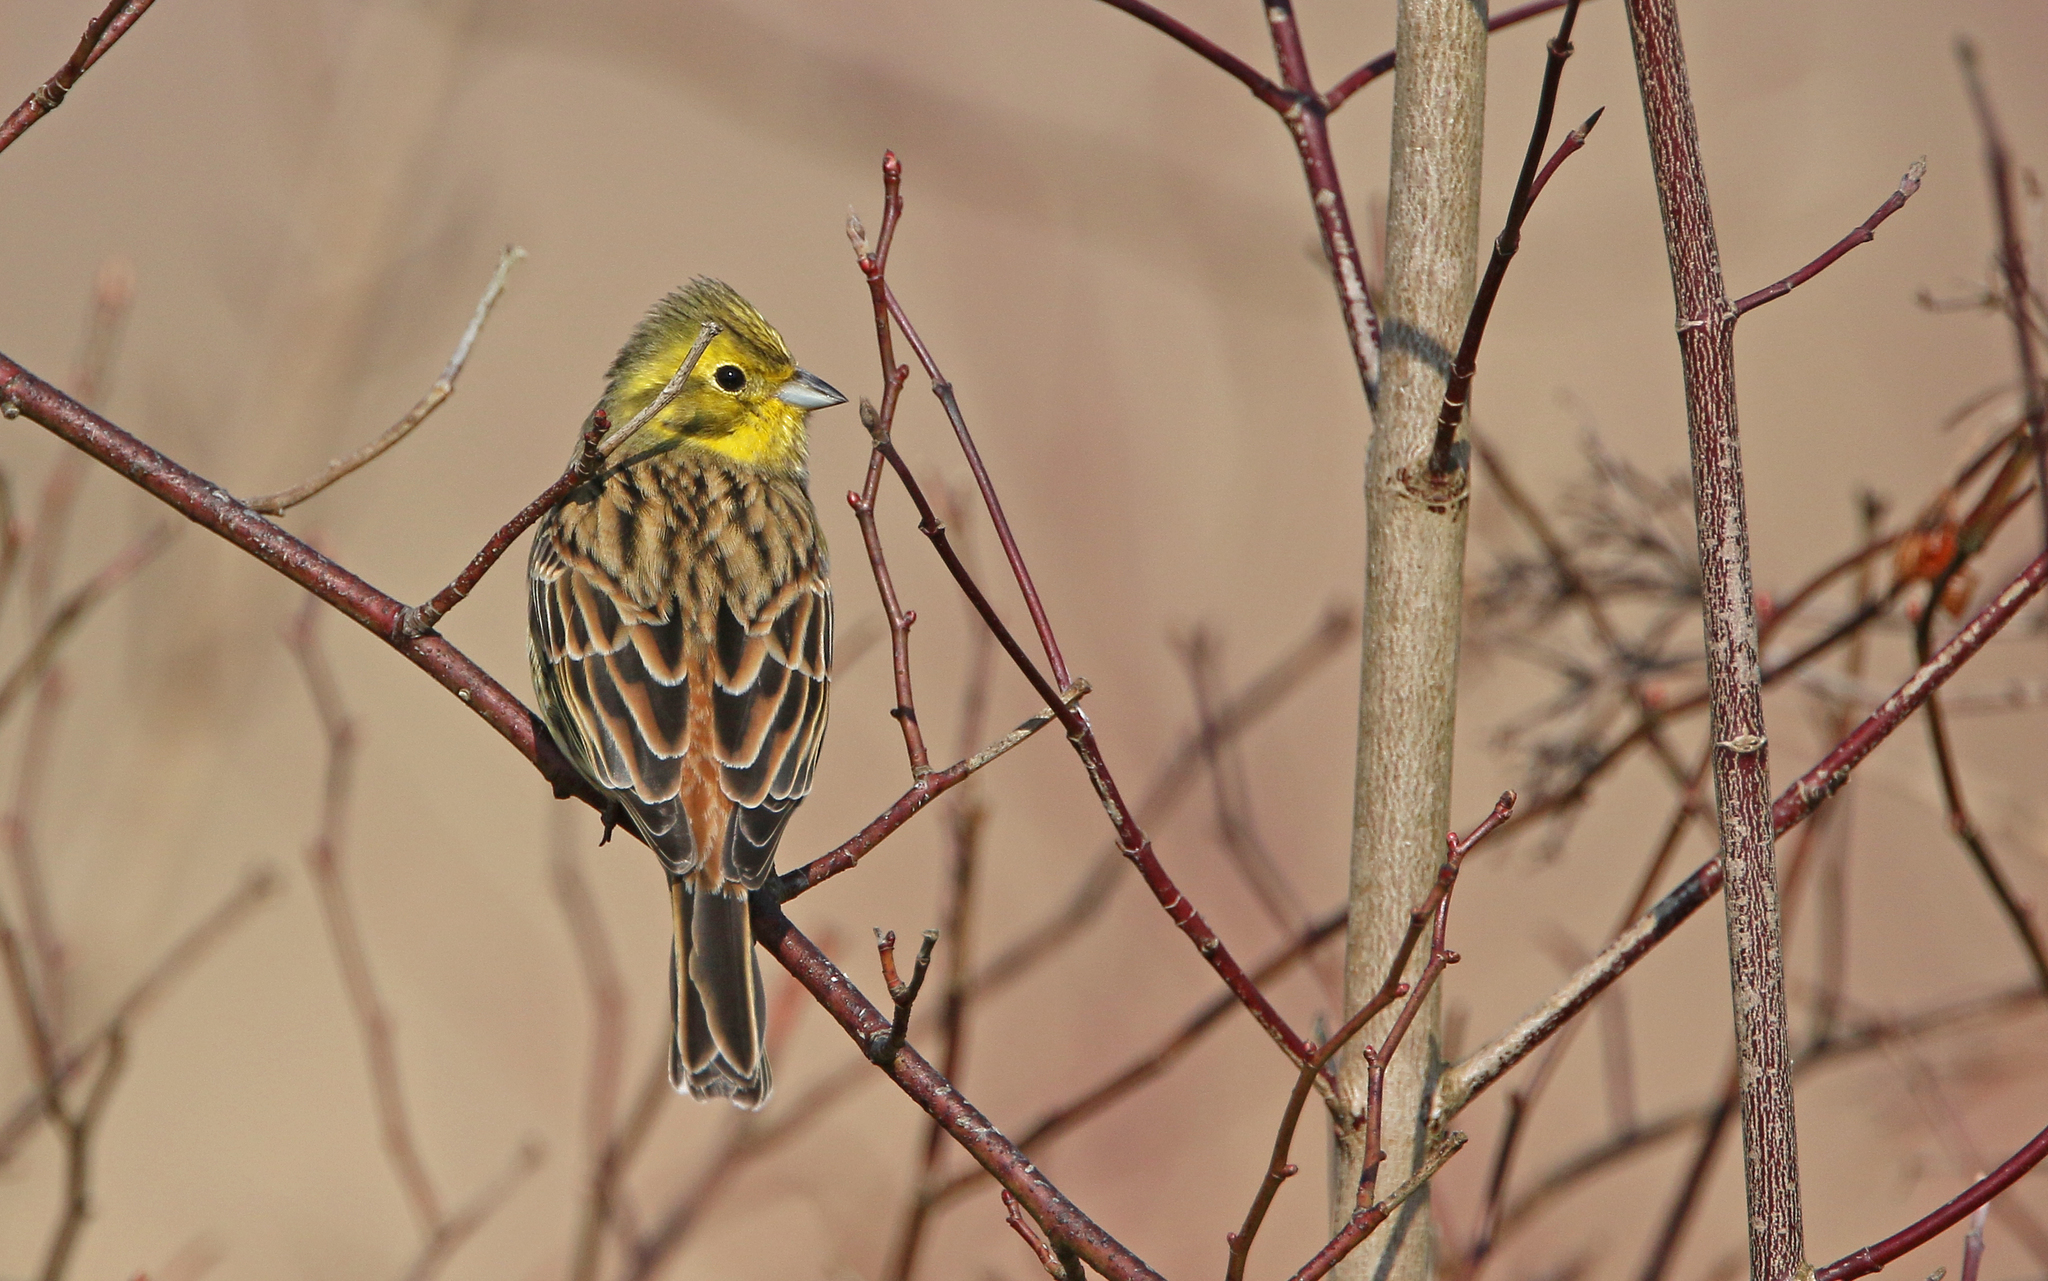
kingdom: Animalia
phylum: Chordata
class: Aves
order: Passeriformes
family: Emberizidae
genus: Emberiza
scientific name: Emberiza citrinella
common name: Yellowhammer
